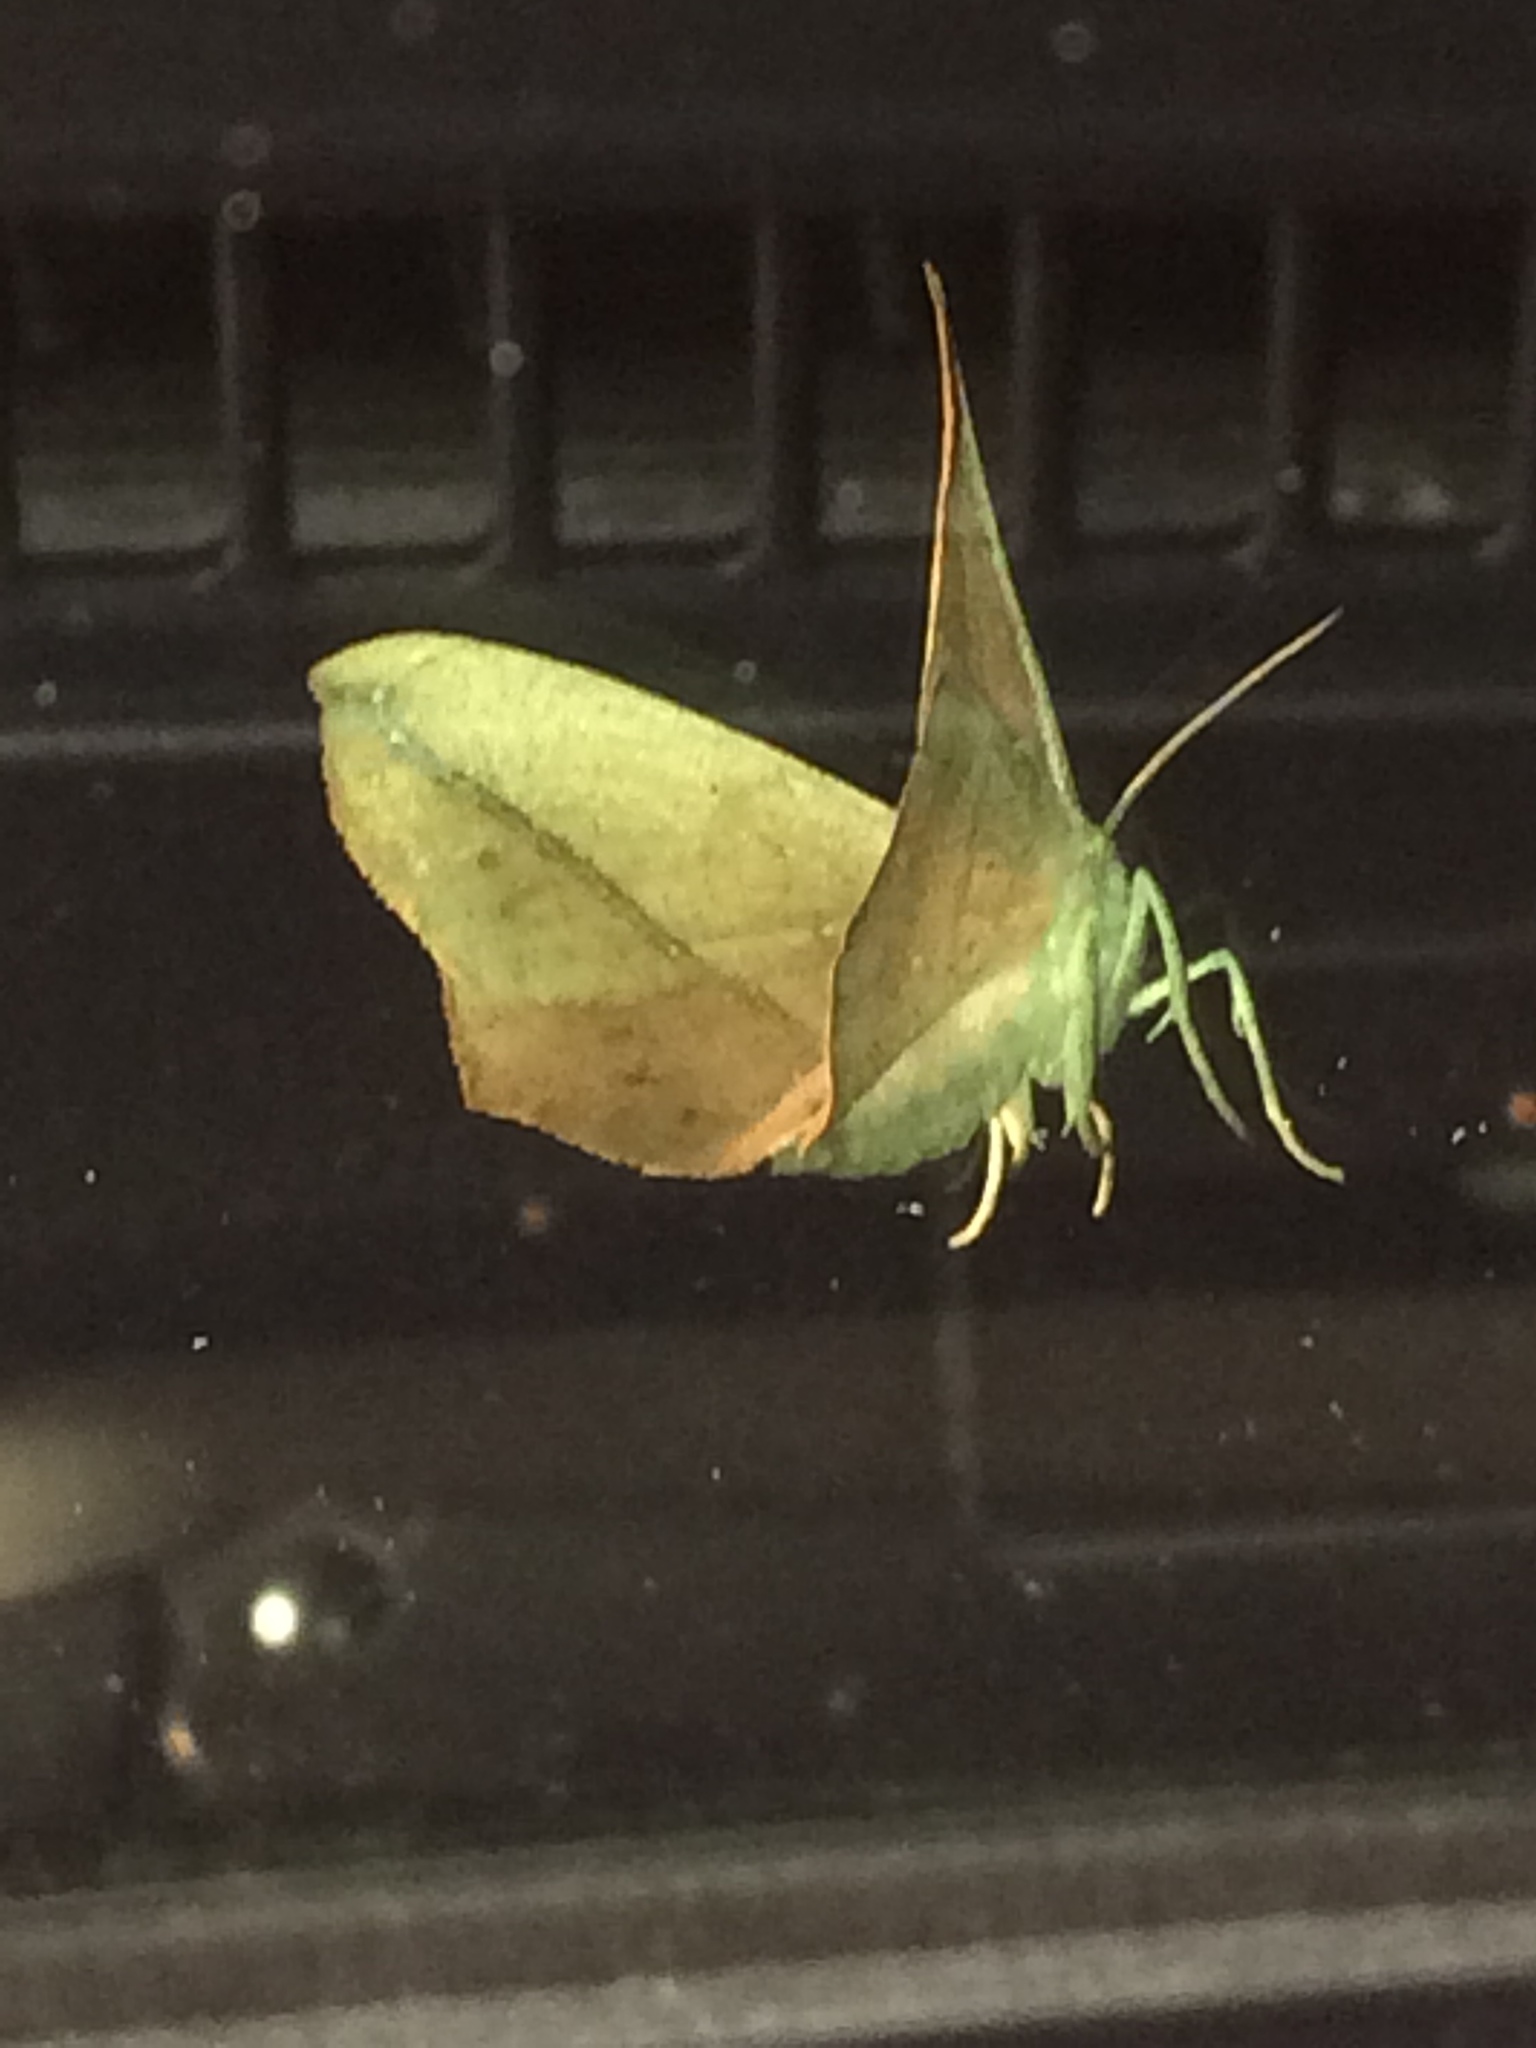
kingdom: Animalia
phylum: Arthropoda
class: Insecta
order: Lepidoptera
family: Geometridae
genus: Prochoerodes
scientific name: Prochoerodes lineola
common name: Large maple spanworm
